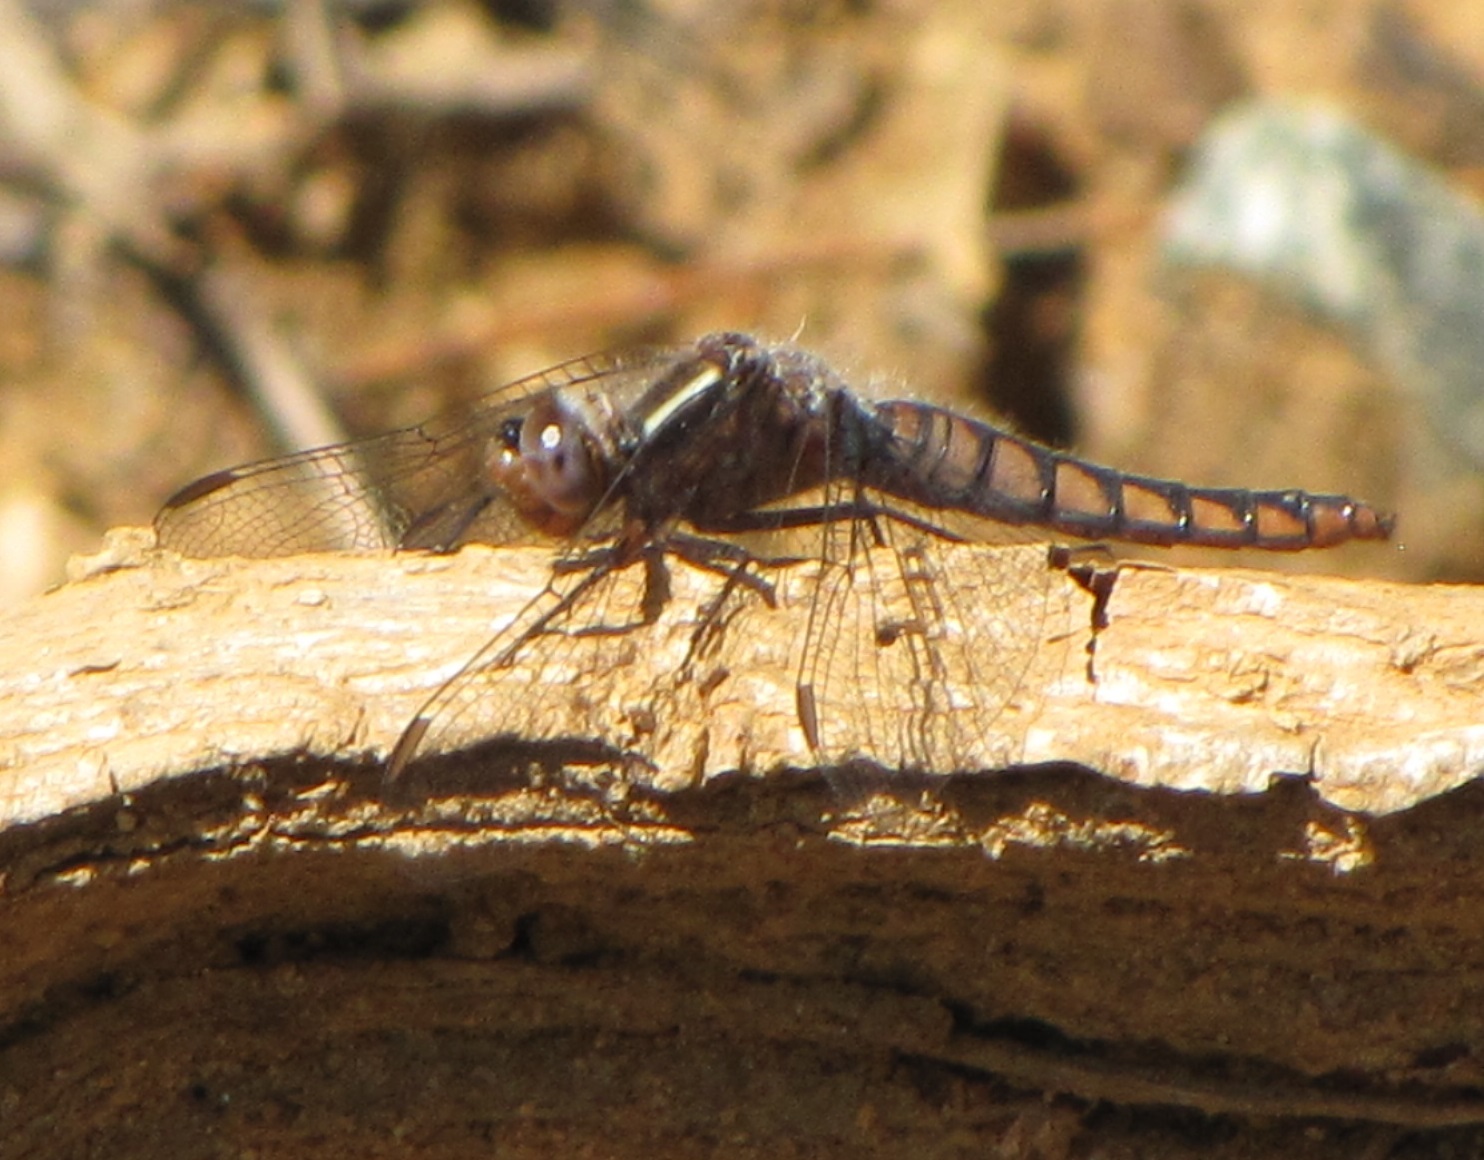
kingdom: Animalia
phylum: Arthropoda
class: Insecta
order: Odonata
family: Libellulidae
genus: Ladona
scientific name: Ladona deplanata
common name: Blue corporal
